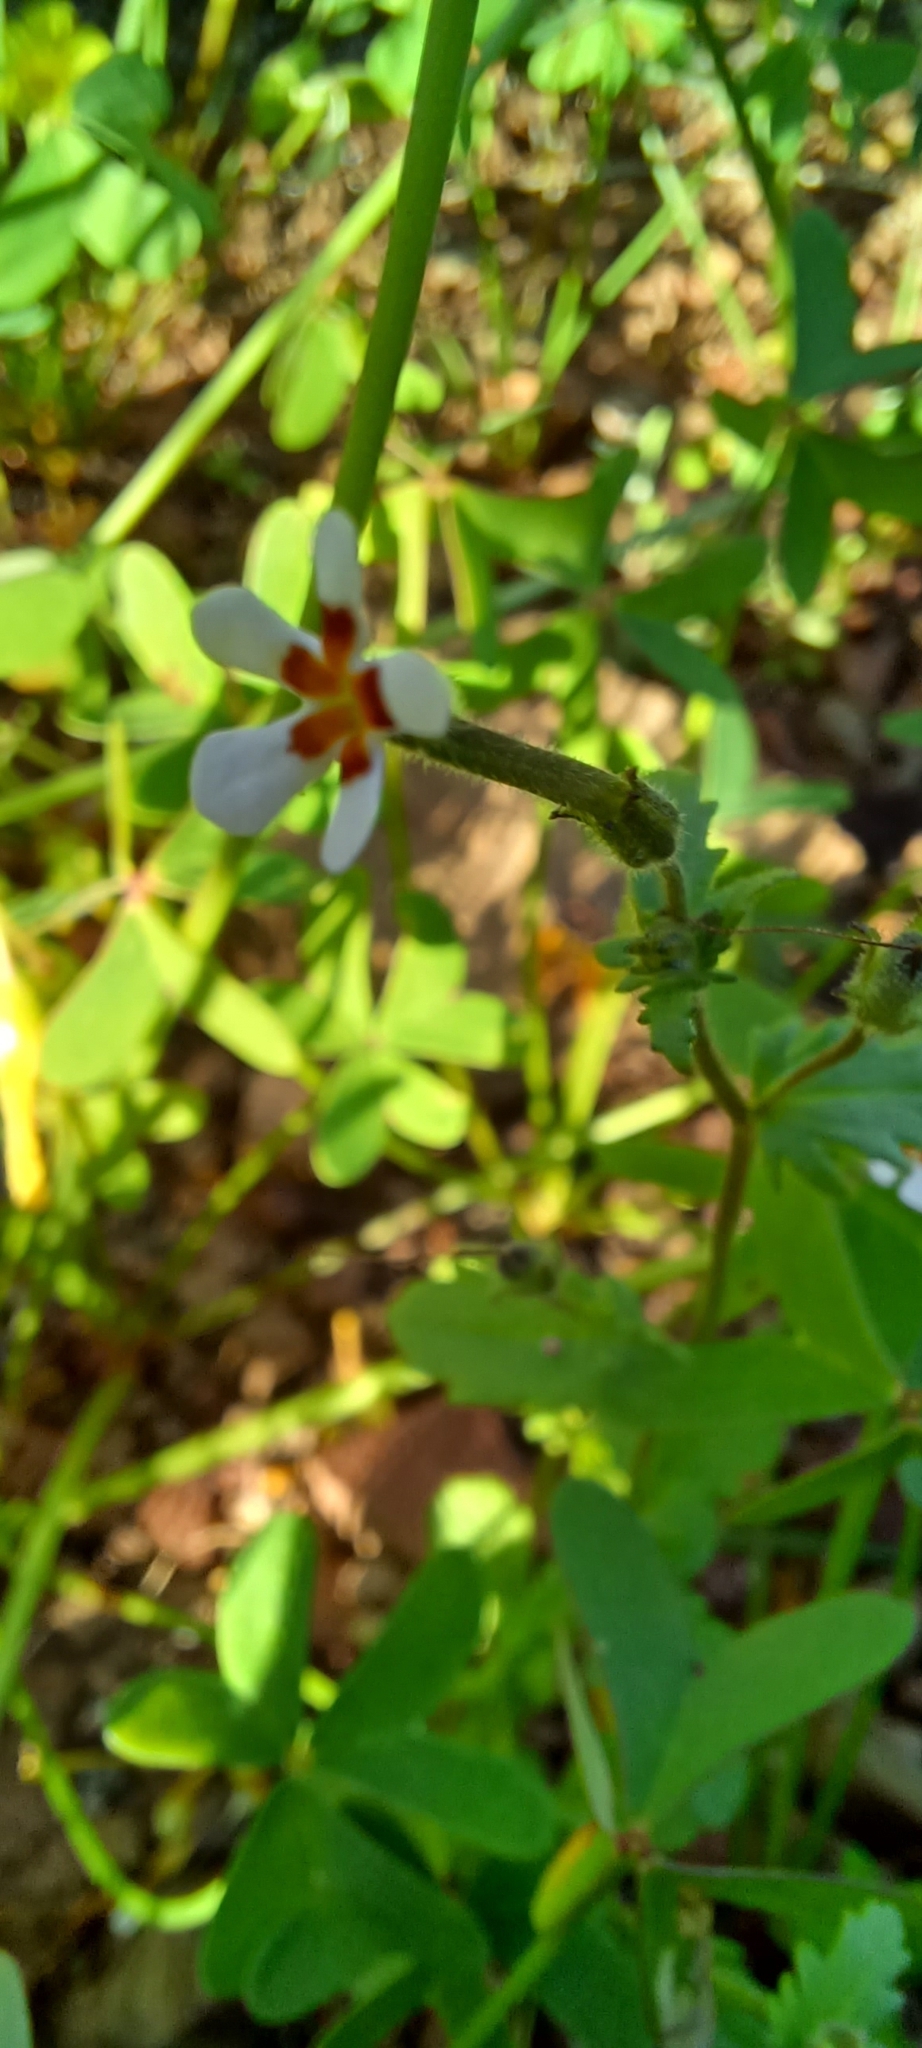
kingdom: Plantae
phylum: Tracheophyta
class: Magnoliopsida
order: Lamiales
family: Scrophulariaceae
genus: Lyperia
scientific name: Lyperia antirrhinoides
